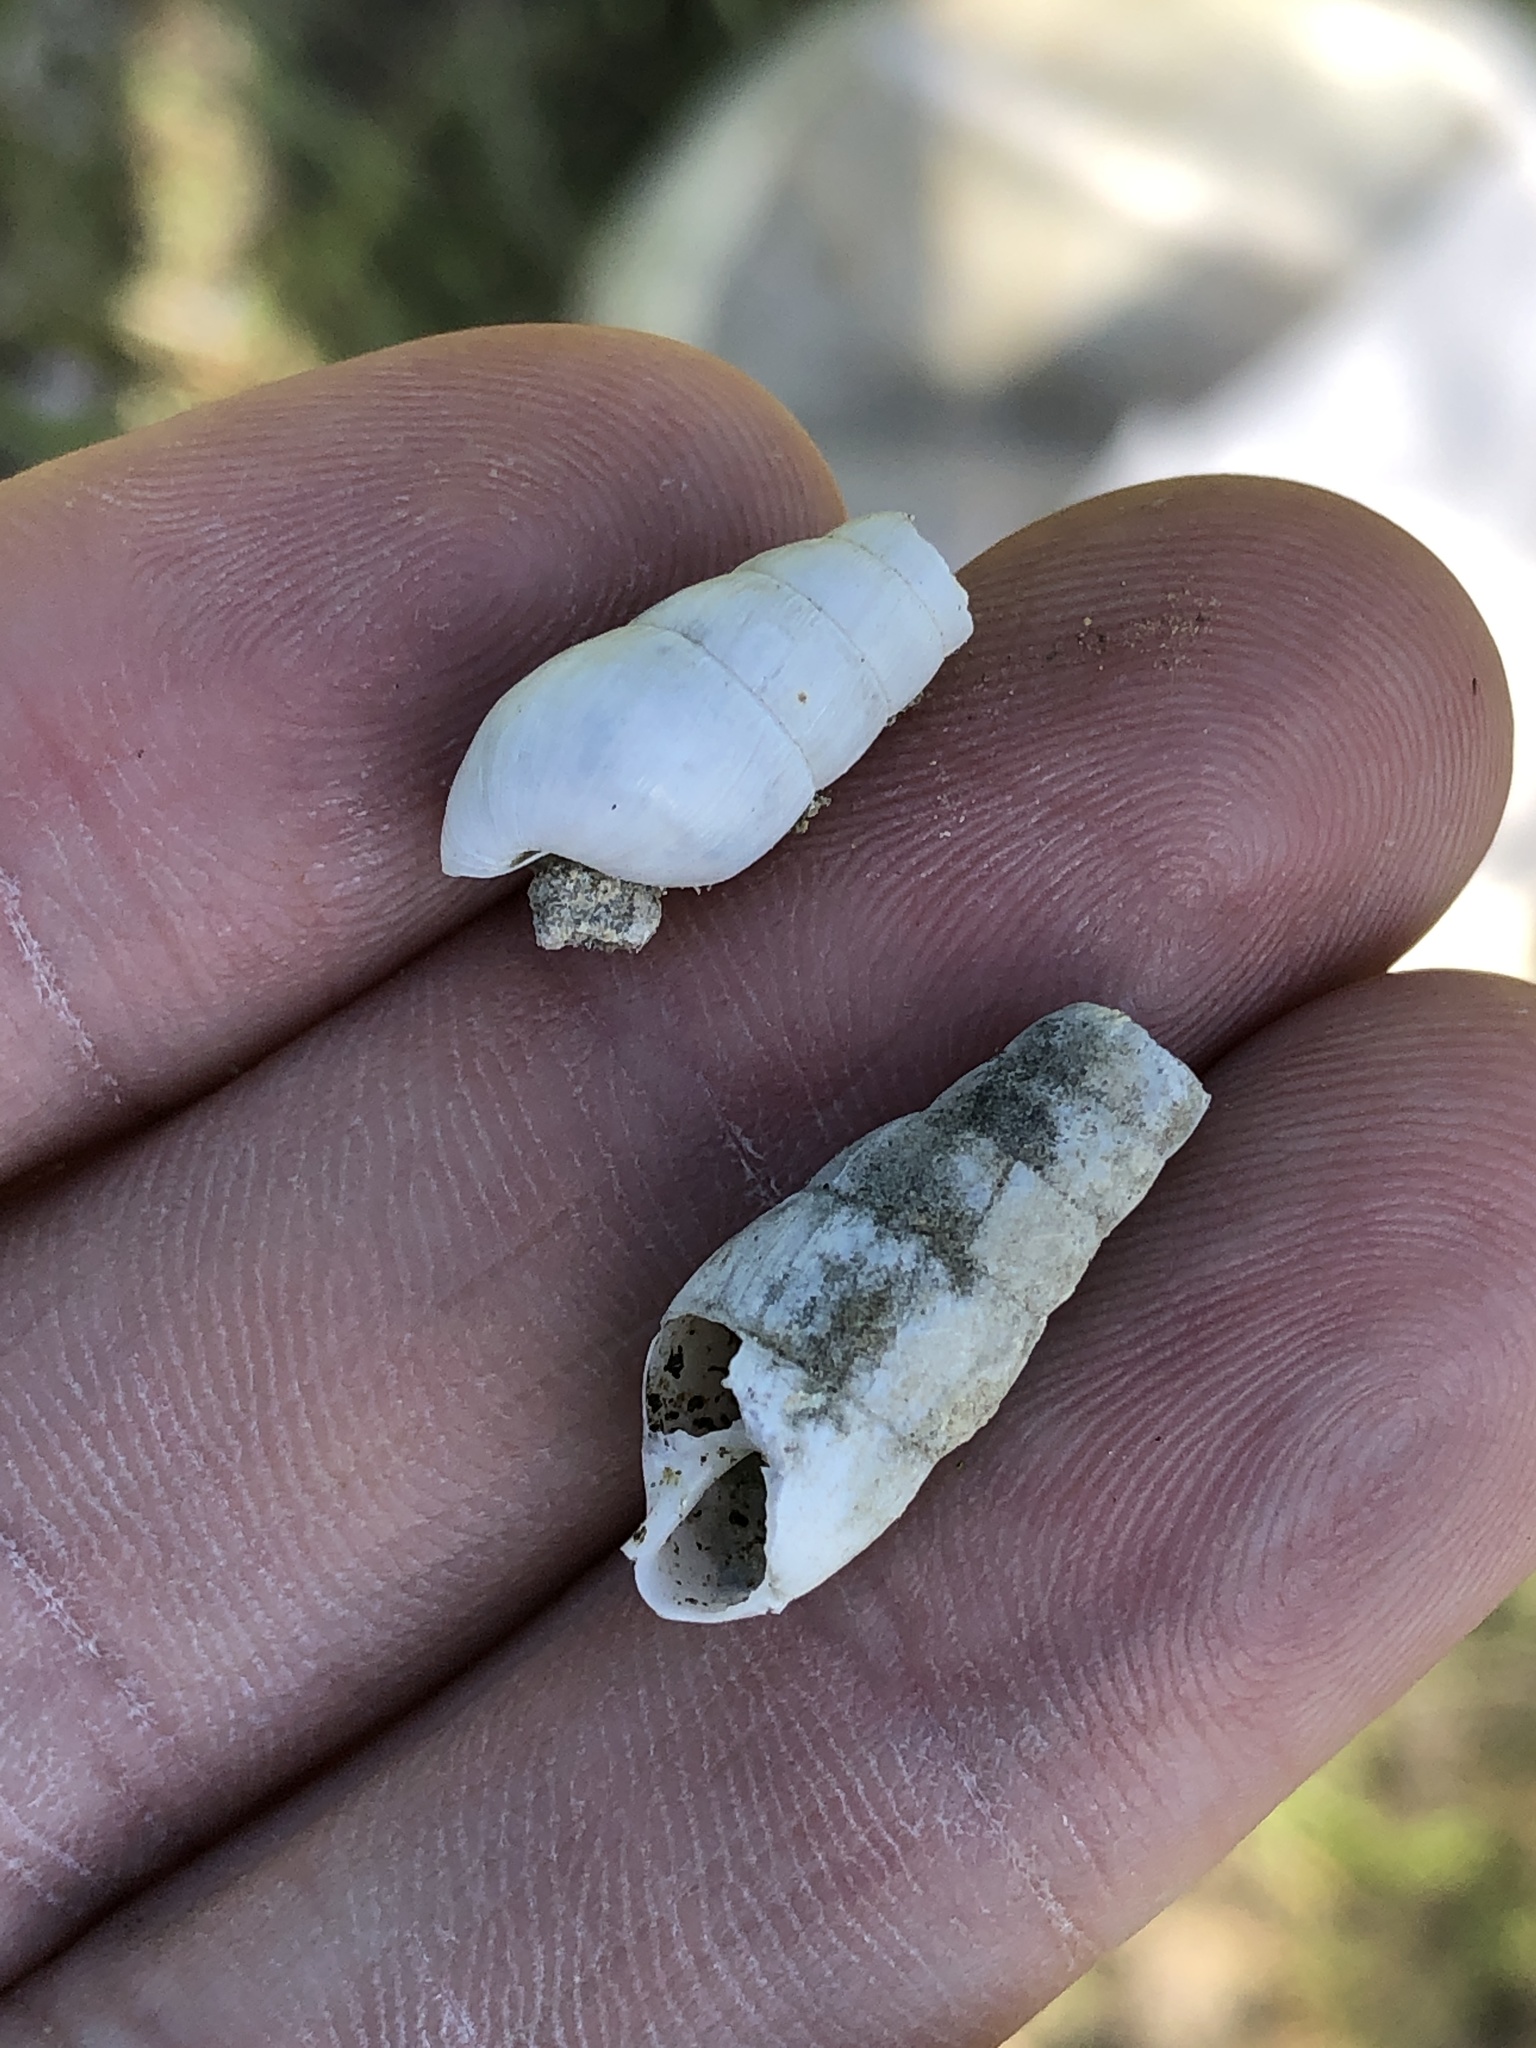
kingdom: Animalia
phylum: Mollusca
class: Gastropoda
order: Stylommatophora
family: Achatinidae
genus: Rumina
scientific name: Rumina decollata
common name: Decollate snail
